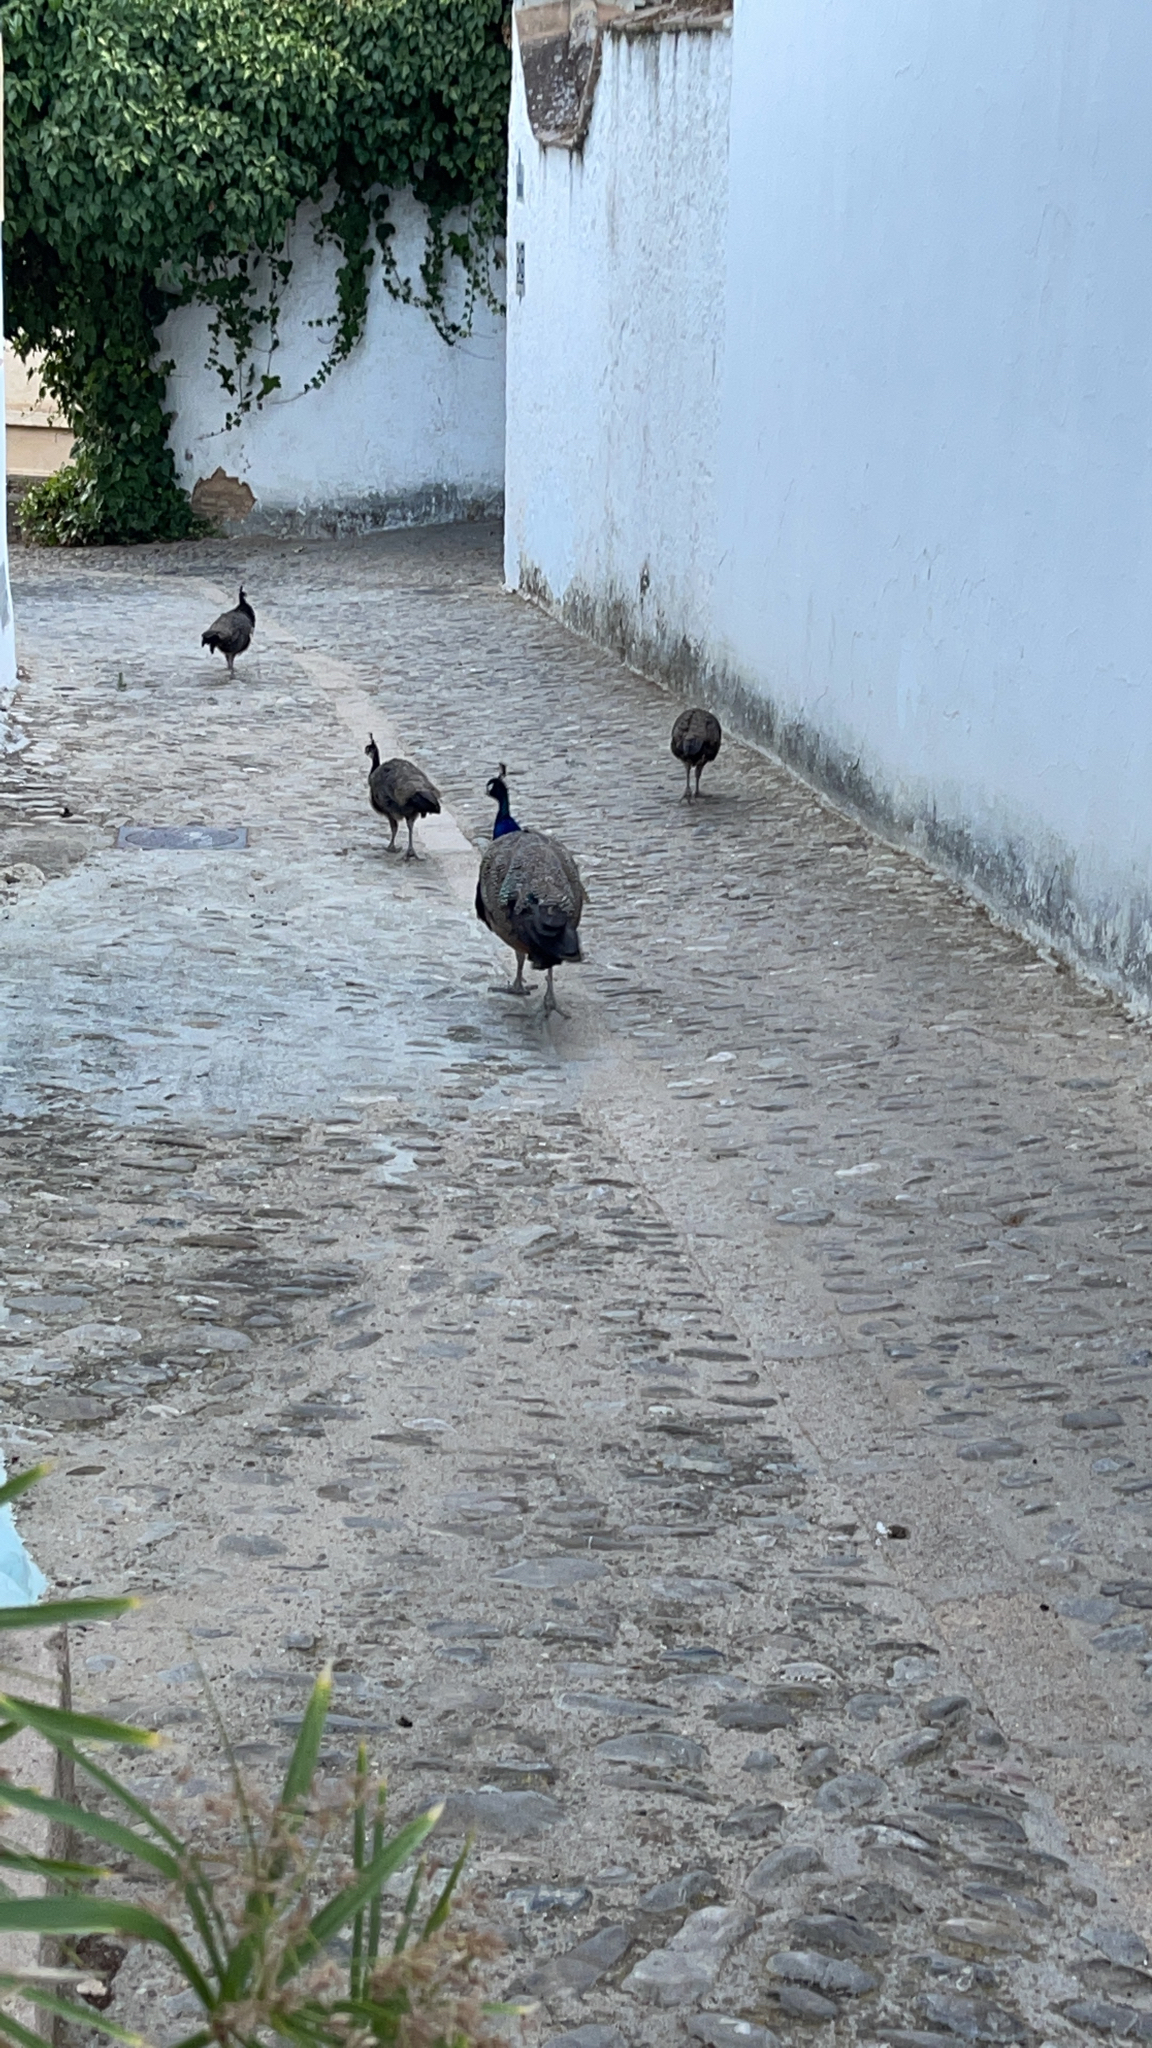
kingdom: Animalia
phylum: Chordata
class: Aves
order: Galliformes
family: Phasianidae
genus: Pavo
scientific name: Pavo cristatus
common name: Indian peafowl
